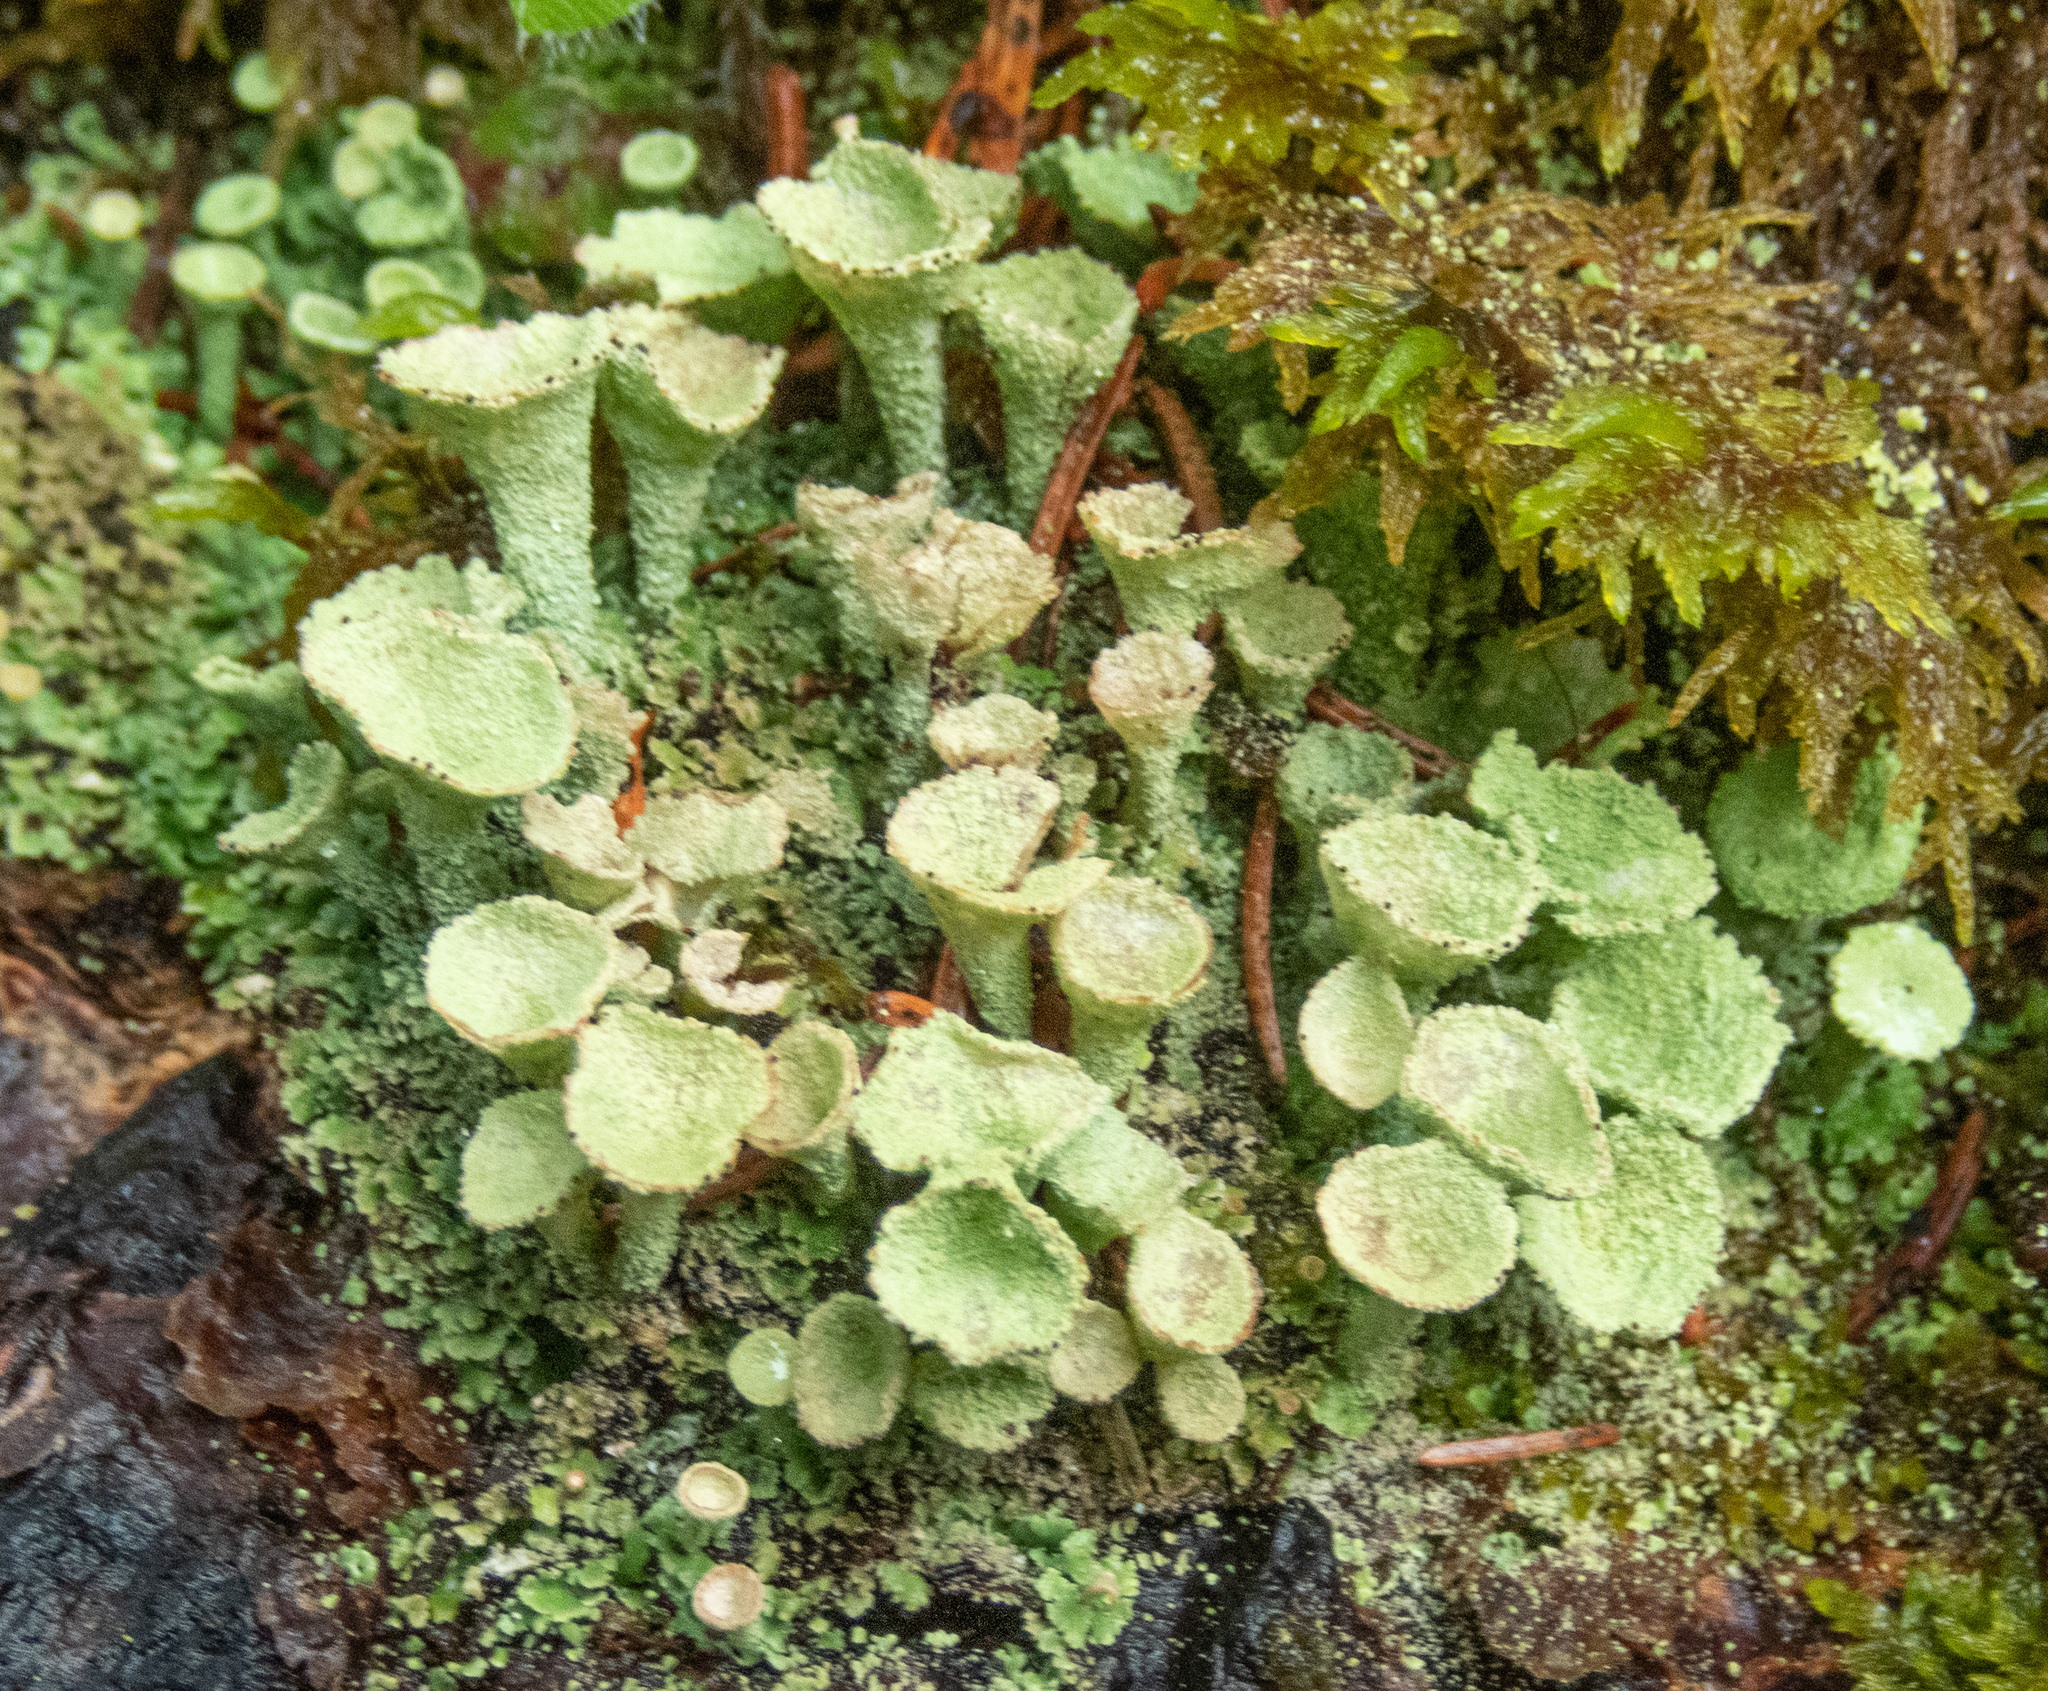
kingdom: Fungi
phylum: Ascomycota
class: Lecanoromycetes
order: Lecanorales
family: Cladoniaceae
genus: Cladonia
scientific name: Cladonia fimbriata
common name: Powdered trumpet lichen
